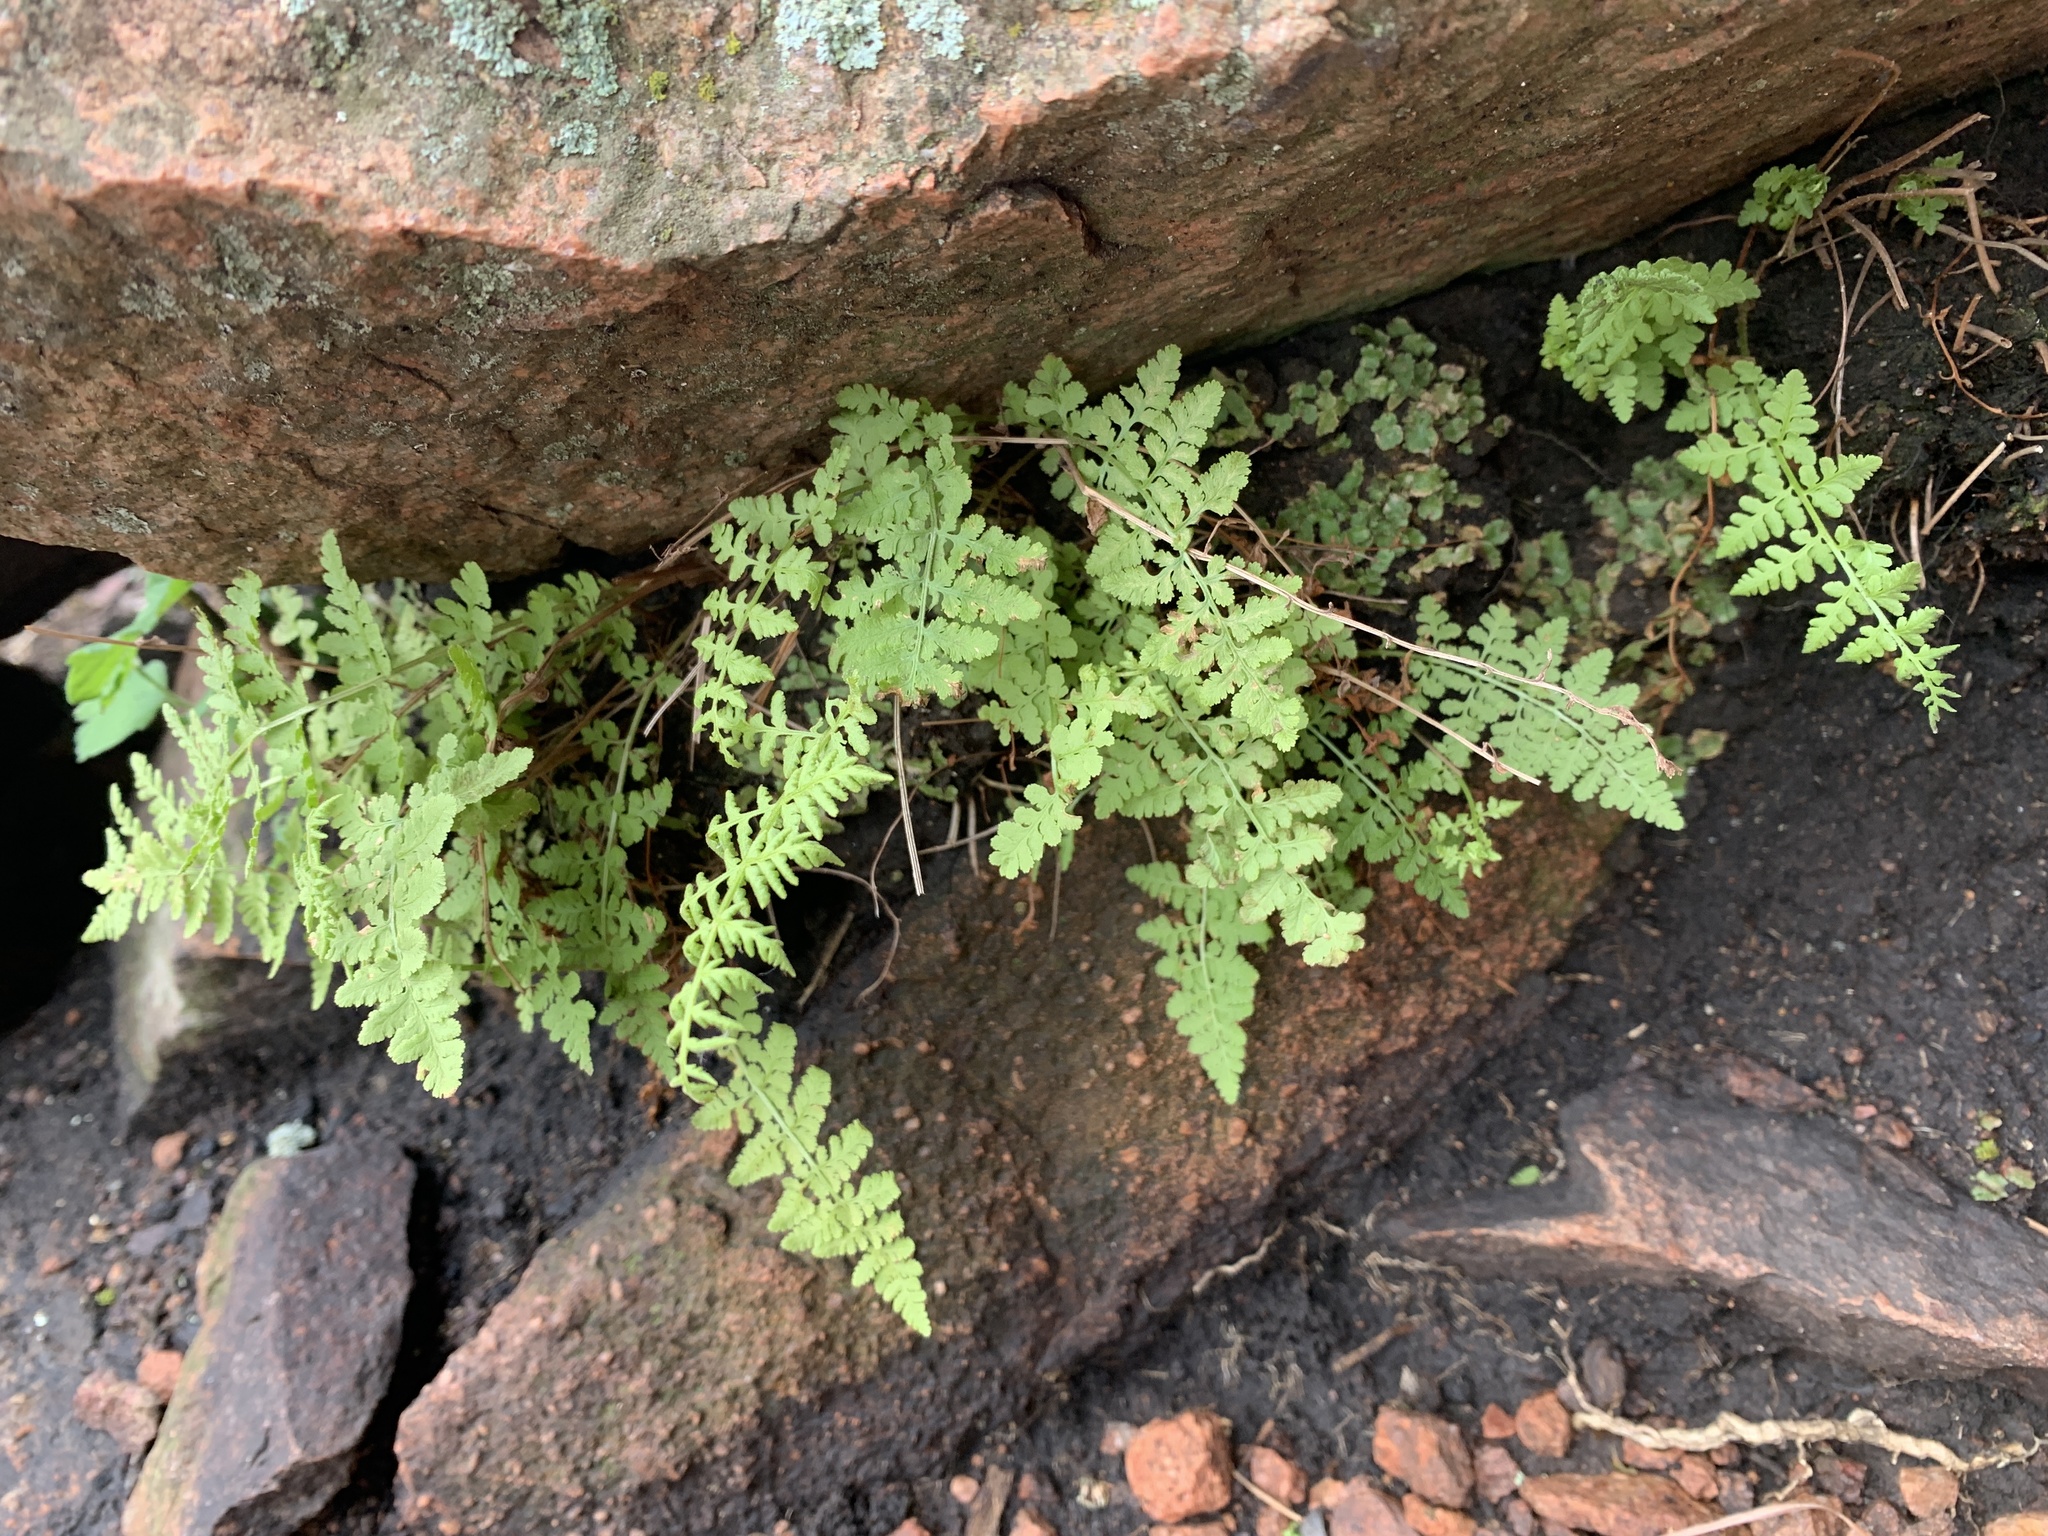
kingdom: Plantae
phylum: Tracheophyta
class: Polypodiopsida
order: Polypodiales
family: Woodsiaceae
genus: Physematium
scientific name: Physematium obtusum
